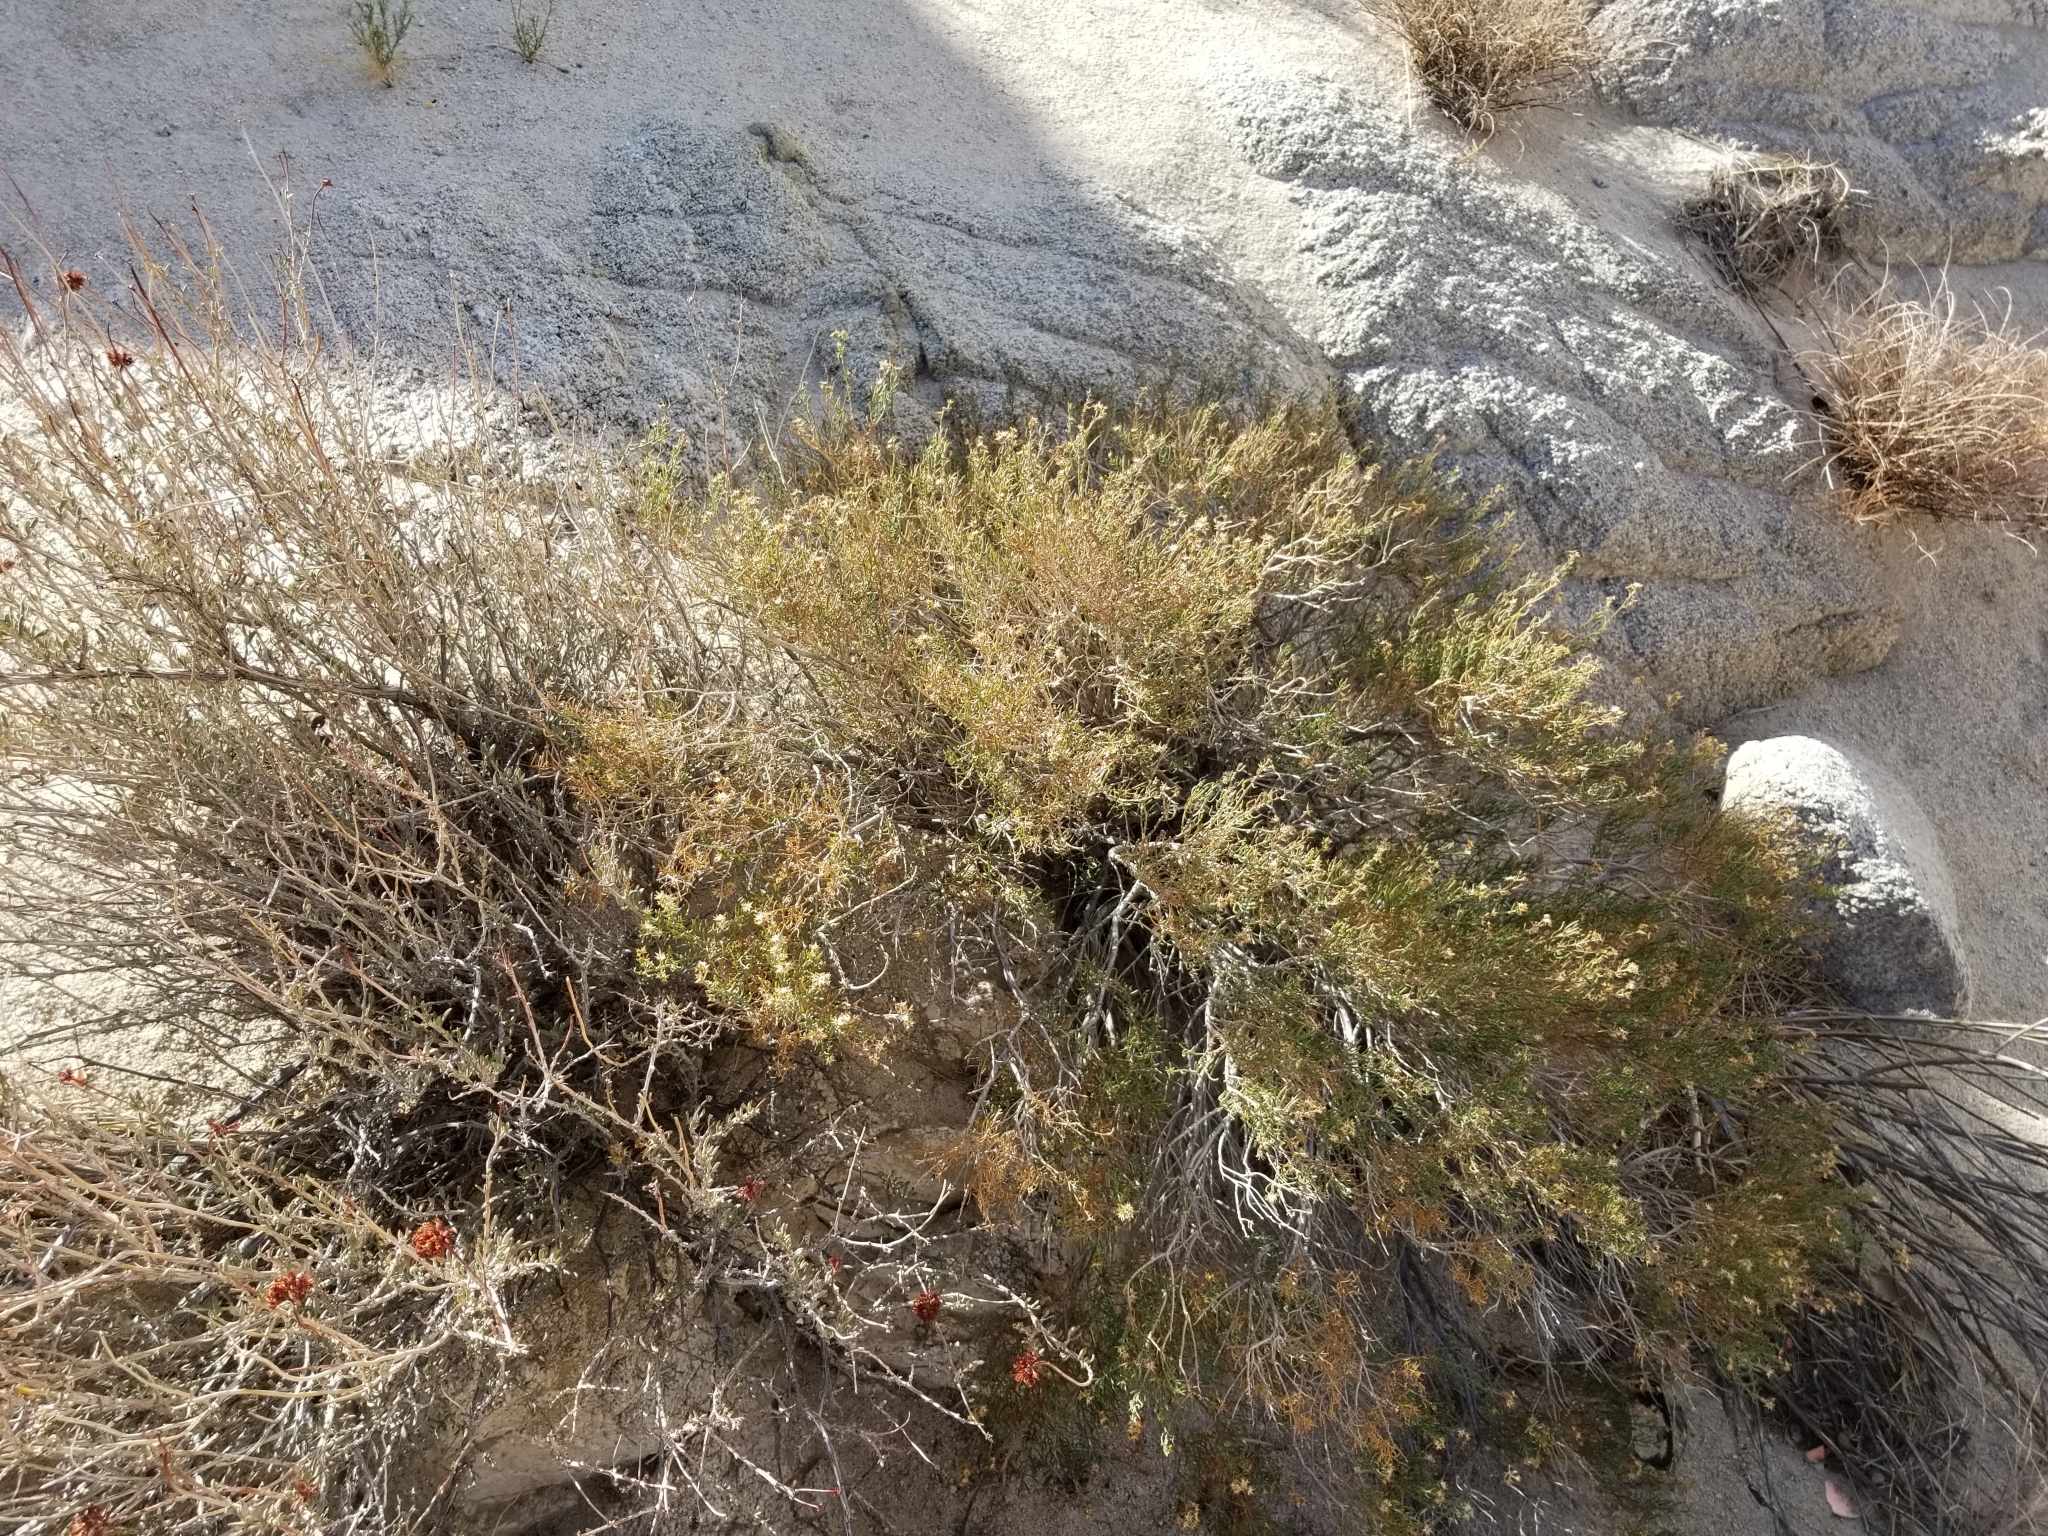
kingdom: Plantae
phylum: Tracheophyta
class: Magnoliopsida
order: Asterales
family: Asteraceae
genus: Ericameria
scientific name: Ericameria brachylepis
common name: Boundary goldenbush
